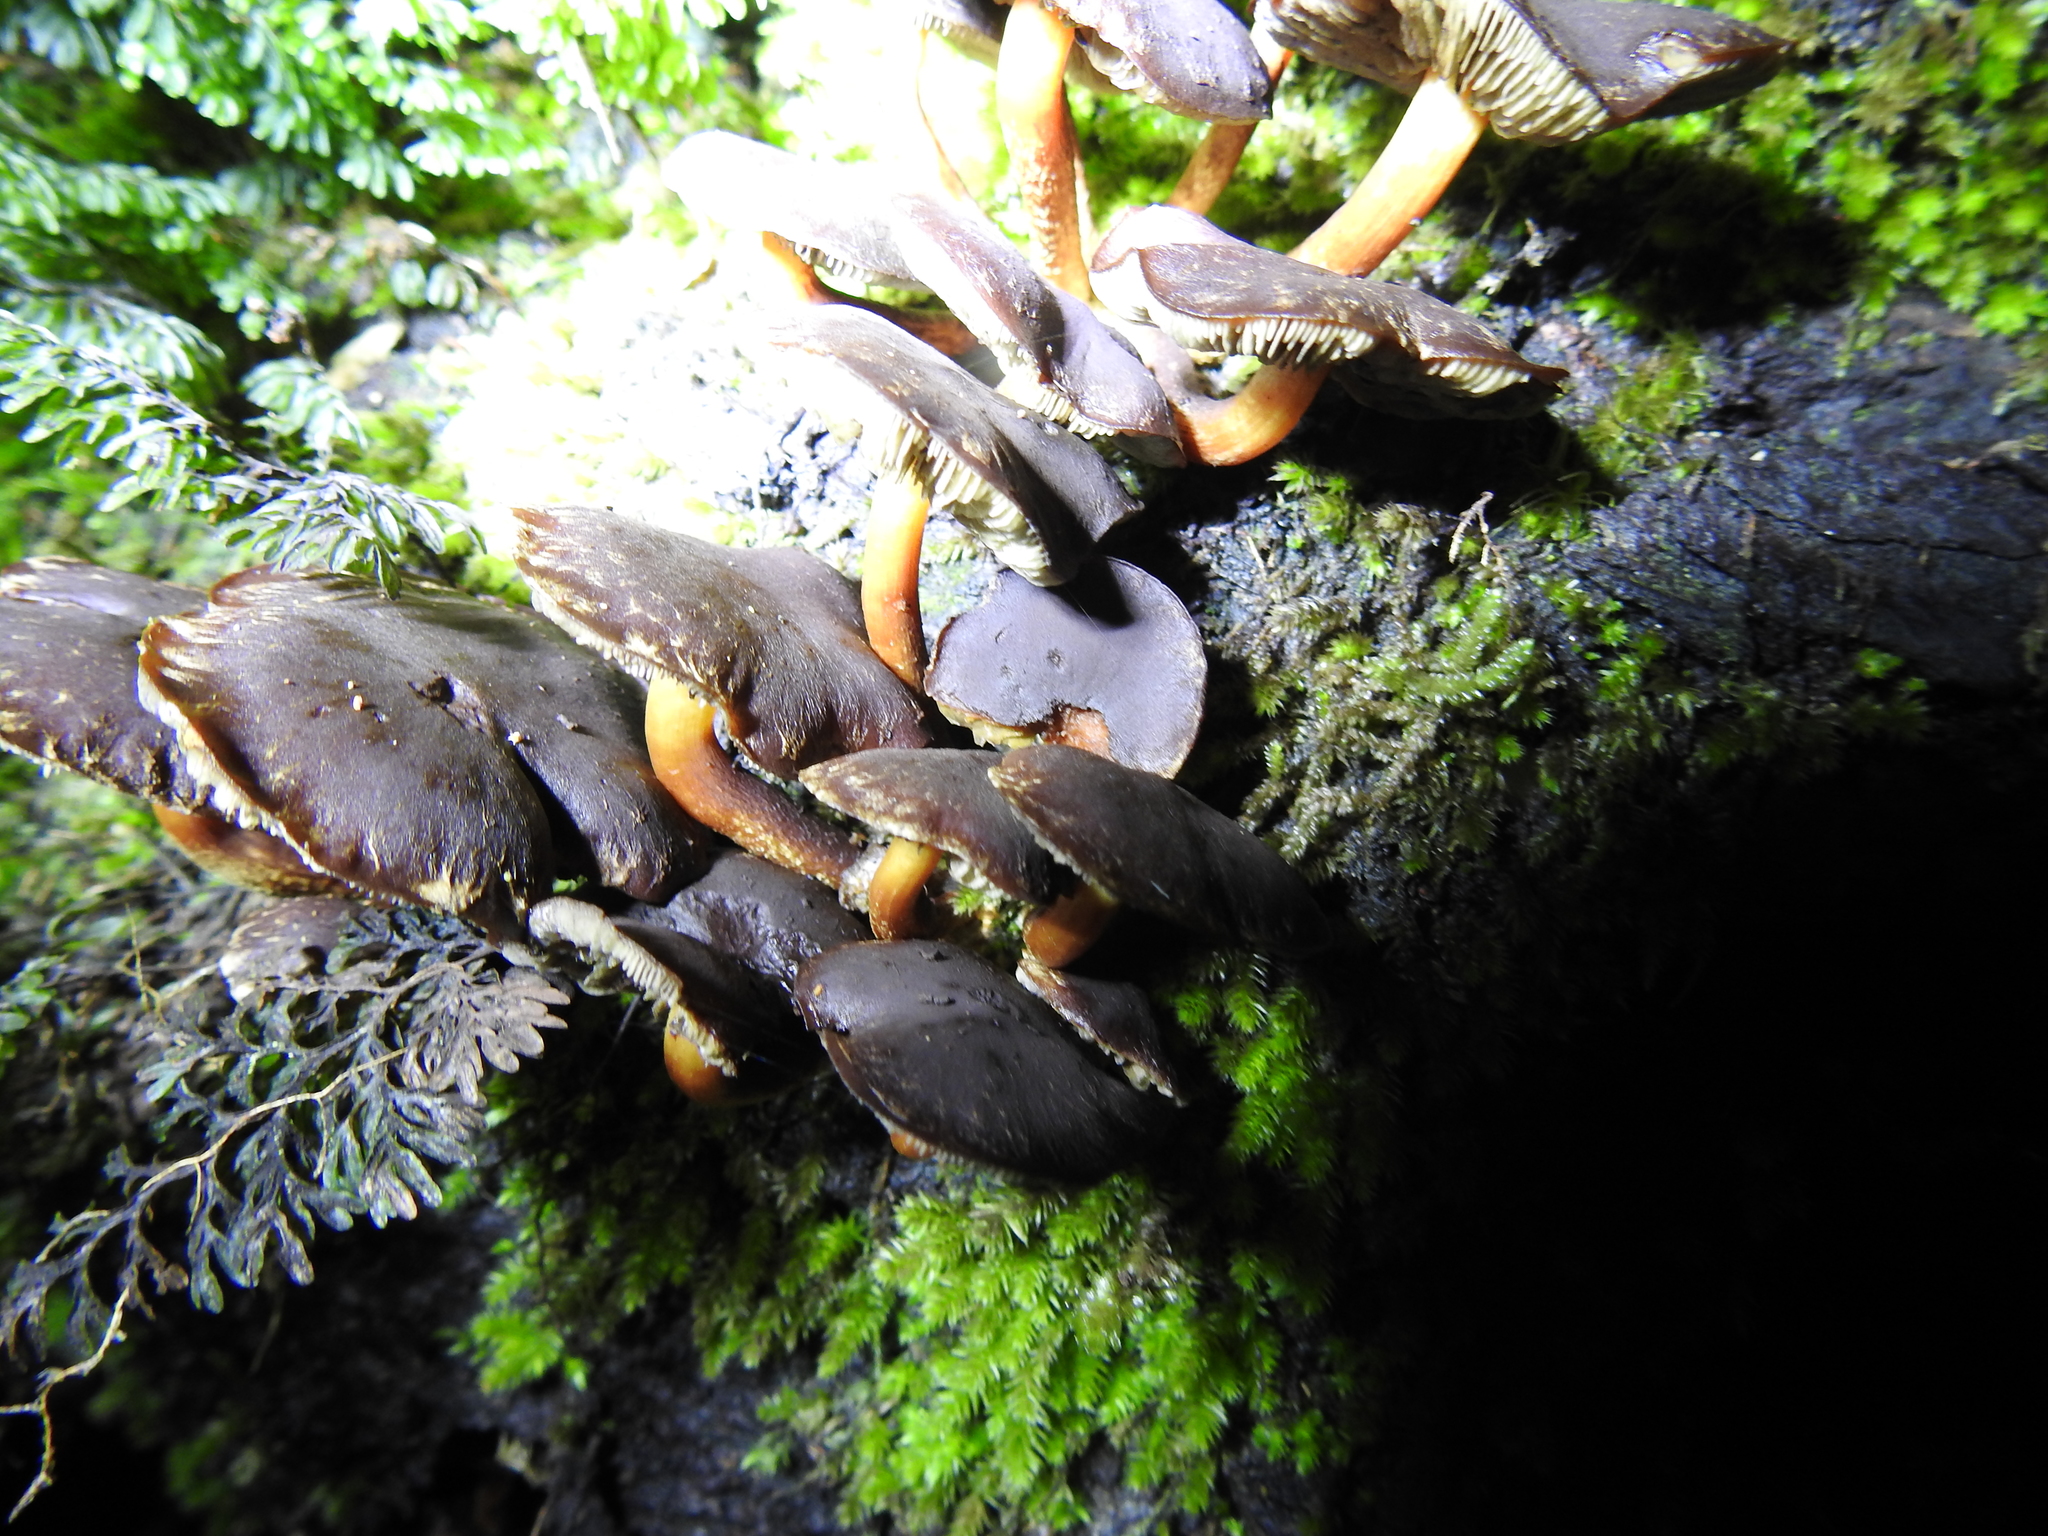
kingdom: Fungi
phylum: Basidiomycota
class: Agaricomycetes
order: Agaricales
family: Strophariaceae
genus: Hypholoma
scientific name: Hypholoma brunneum
